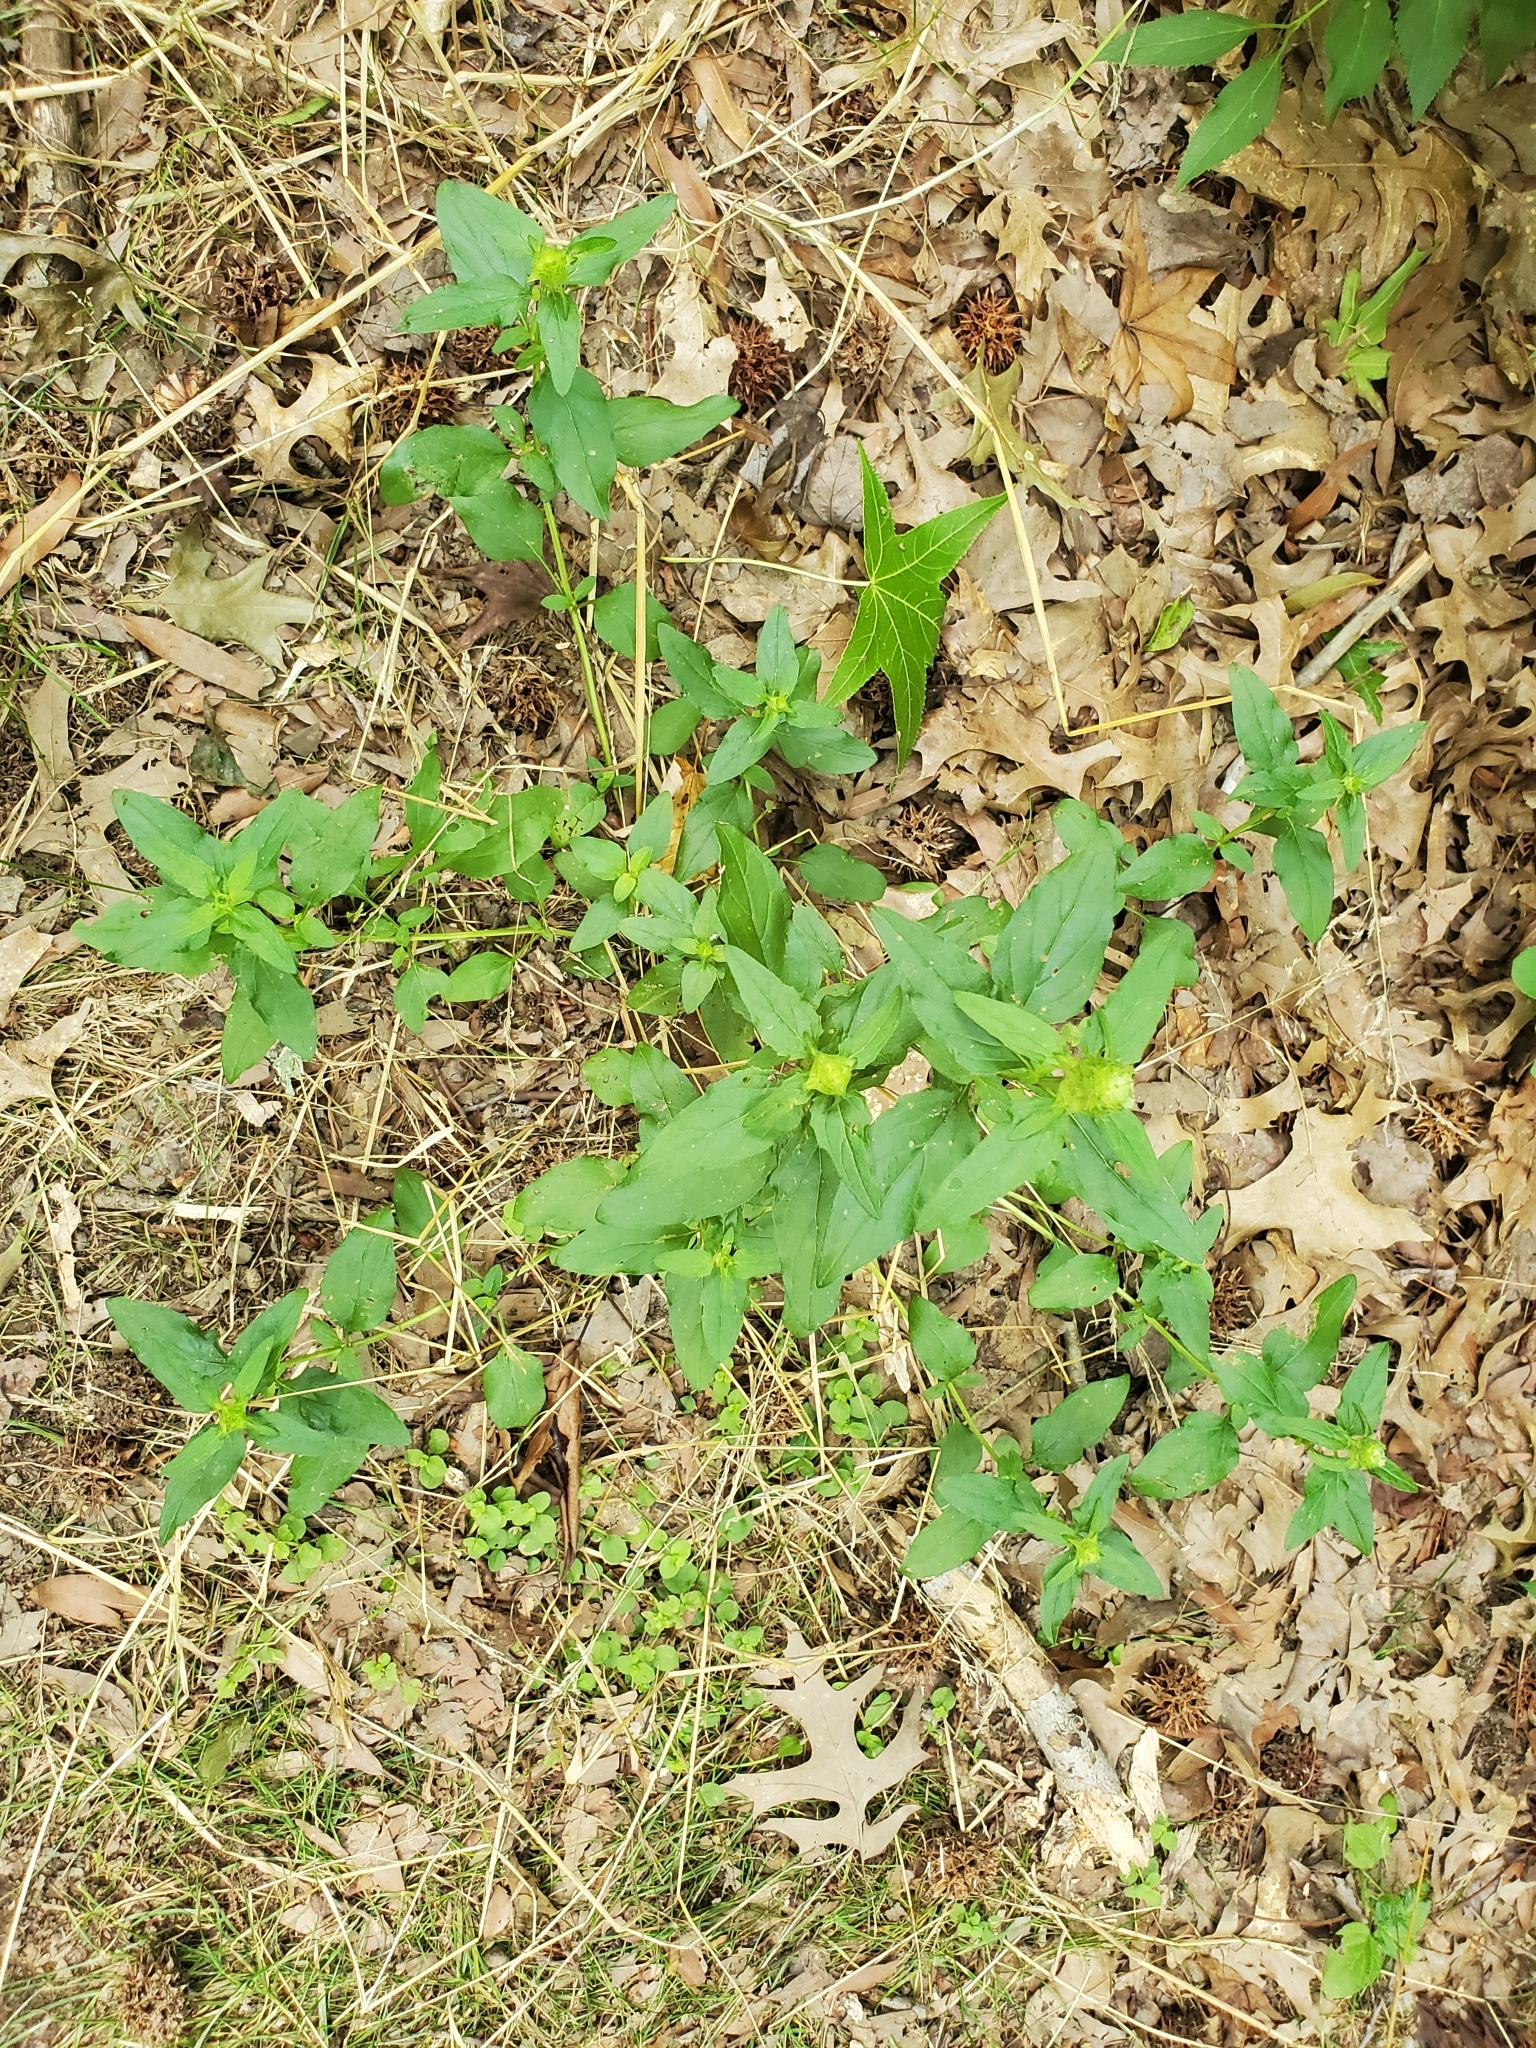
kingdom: Plantae
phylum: Tracheophyta
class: Magnoliopsida
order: Lamiales
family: Lamiaceae
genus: Prunella
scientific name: Prunella vulgaris
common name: Heal-all
